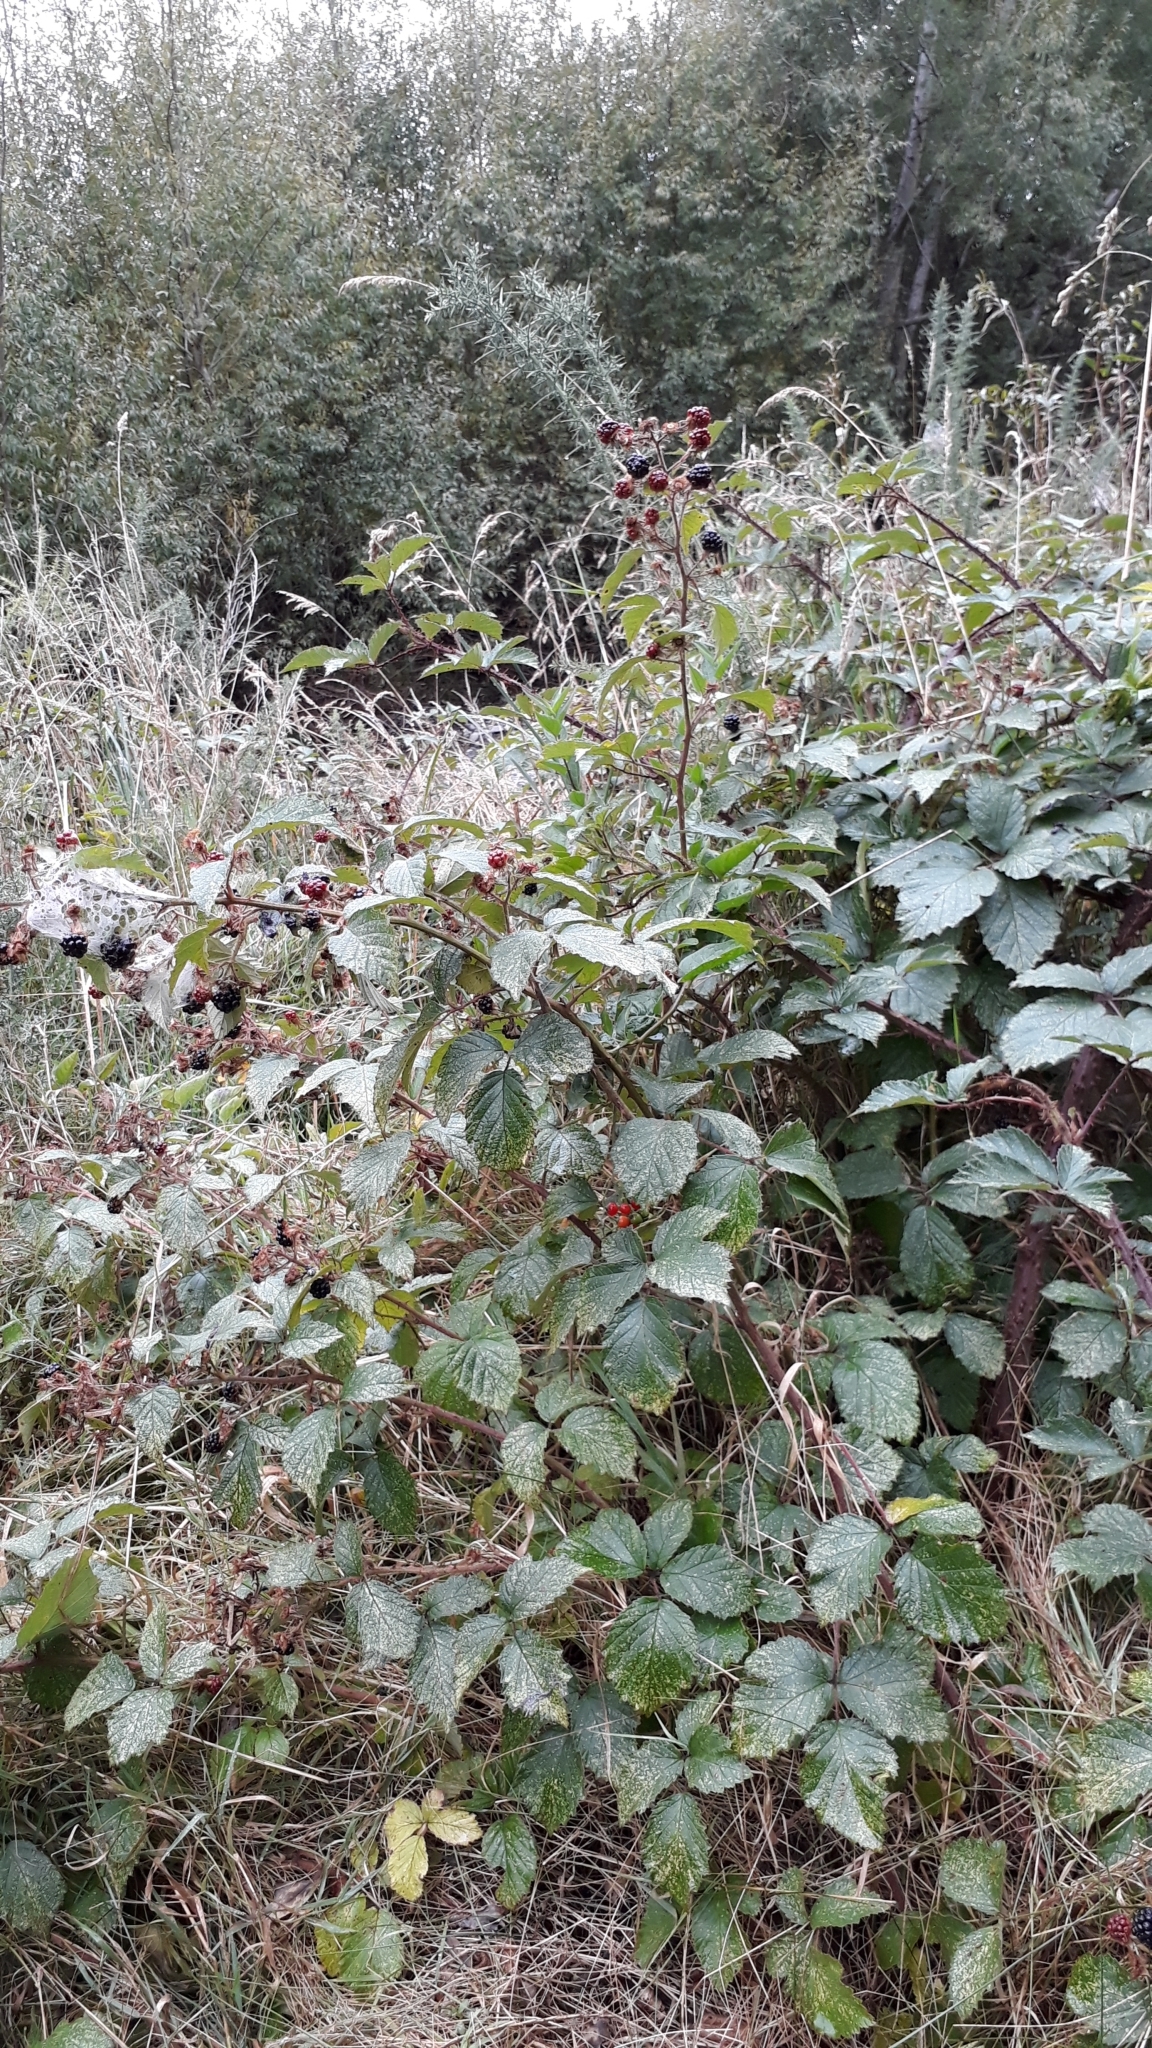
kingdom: Plantae
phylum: Tracheophyta
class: Magnoliopsida
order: Rosales
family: Rosaceae
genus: Rubus
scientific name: Rubus
